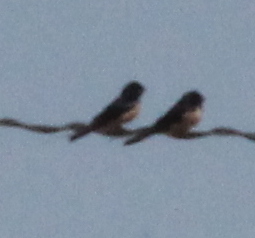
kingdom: Animalia
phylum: Chordata
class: Aves
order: Passeriformes
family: Hirundinidae
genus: Hirundo
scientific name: Hirundo rustica
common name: Barn swallow
